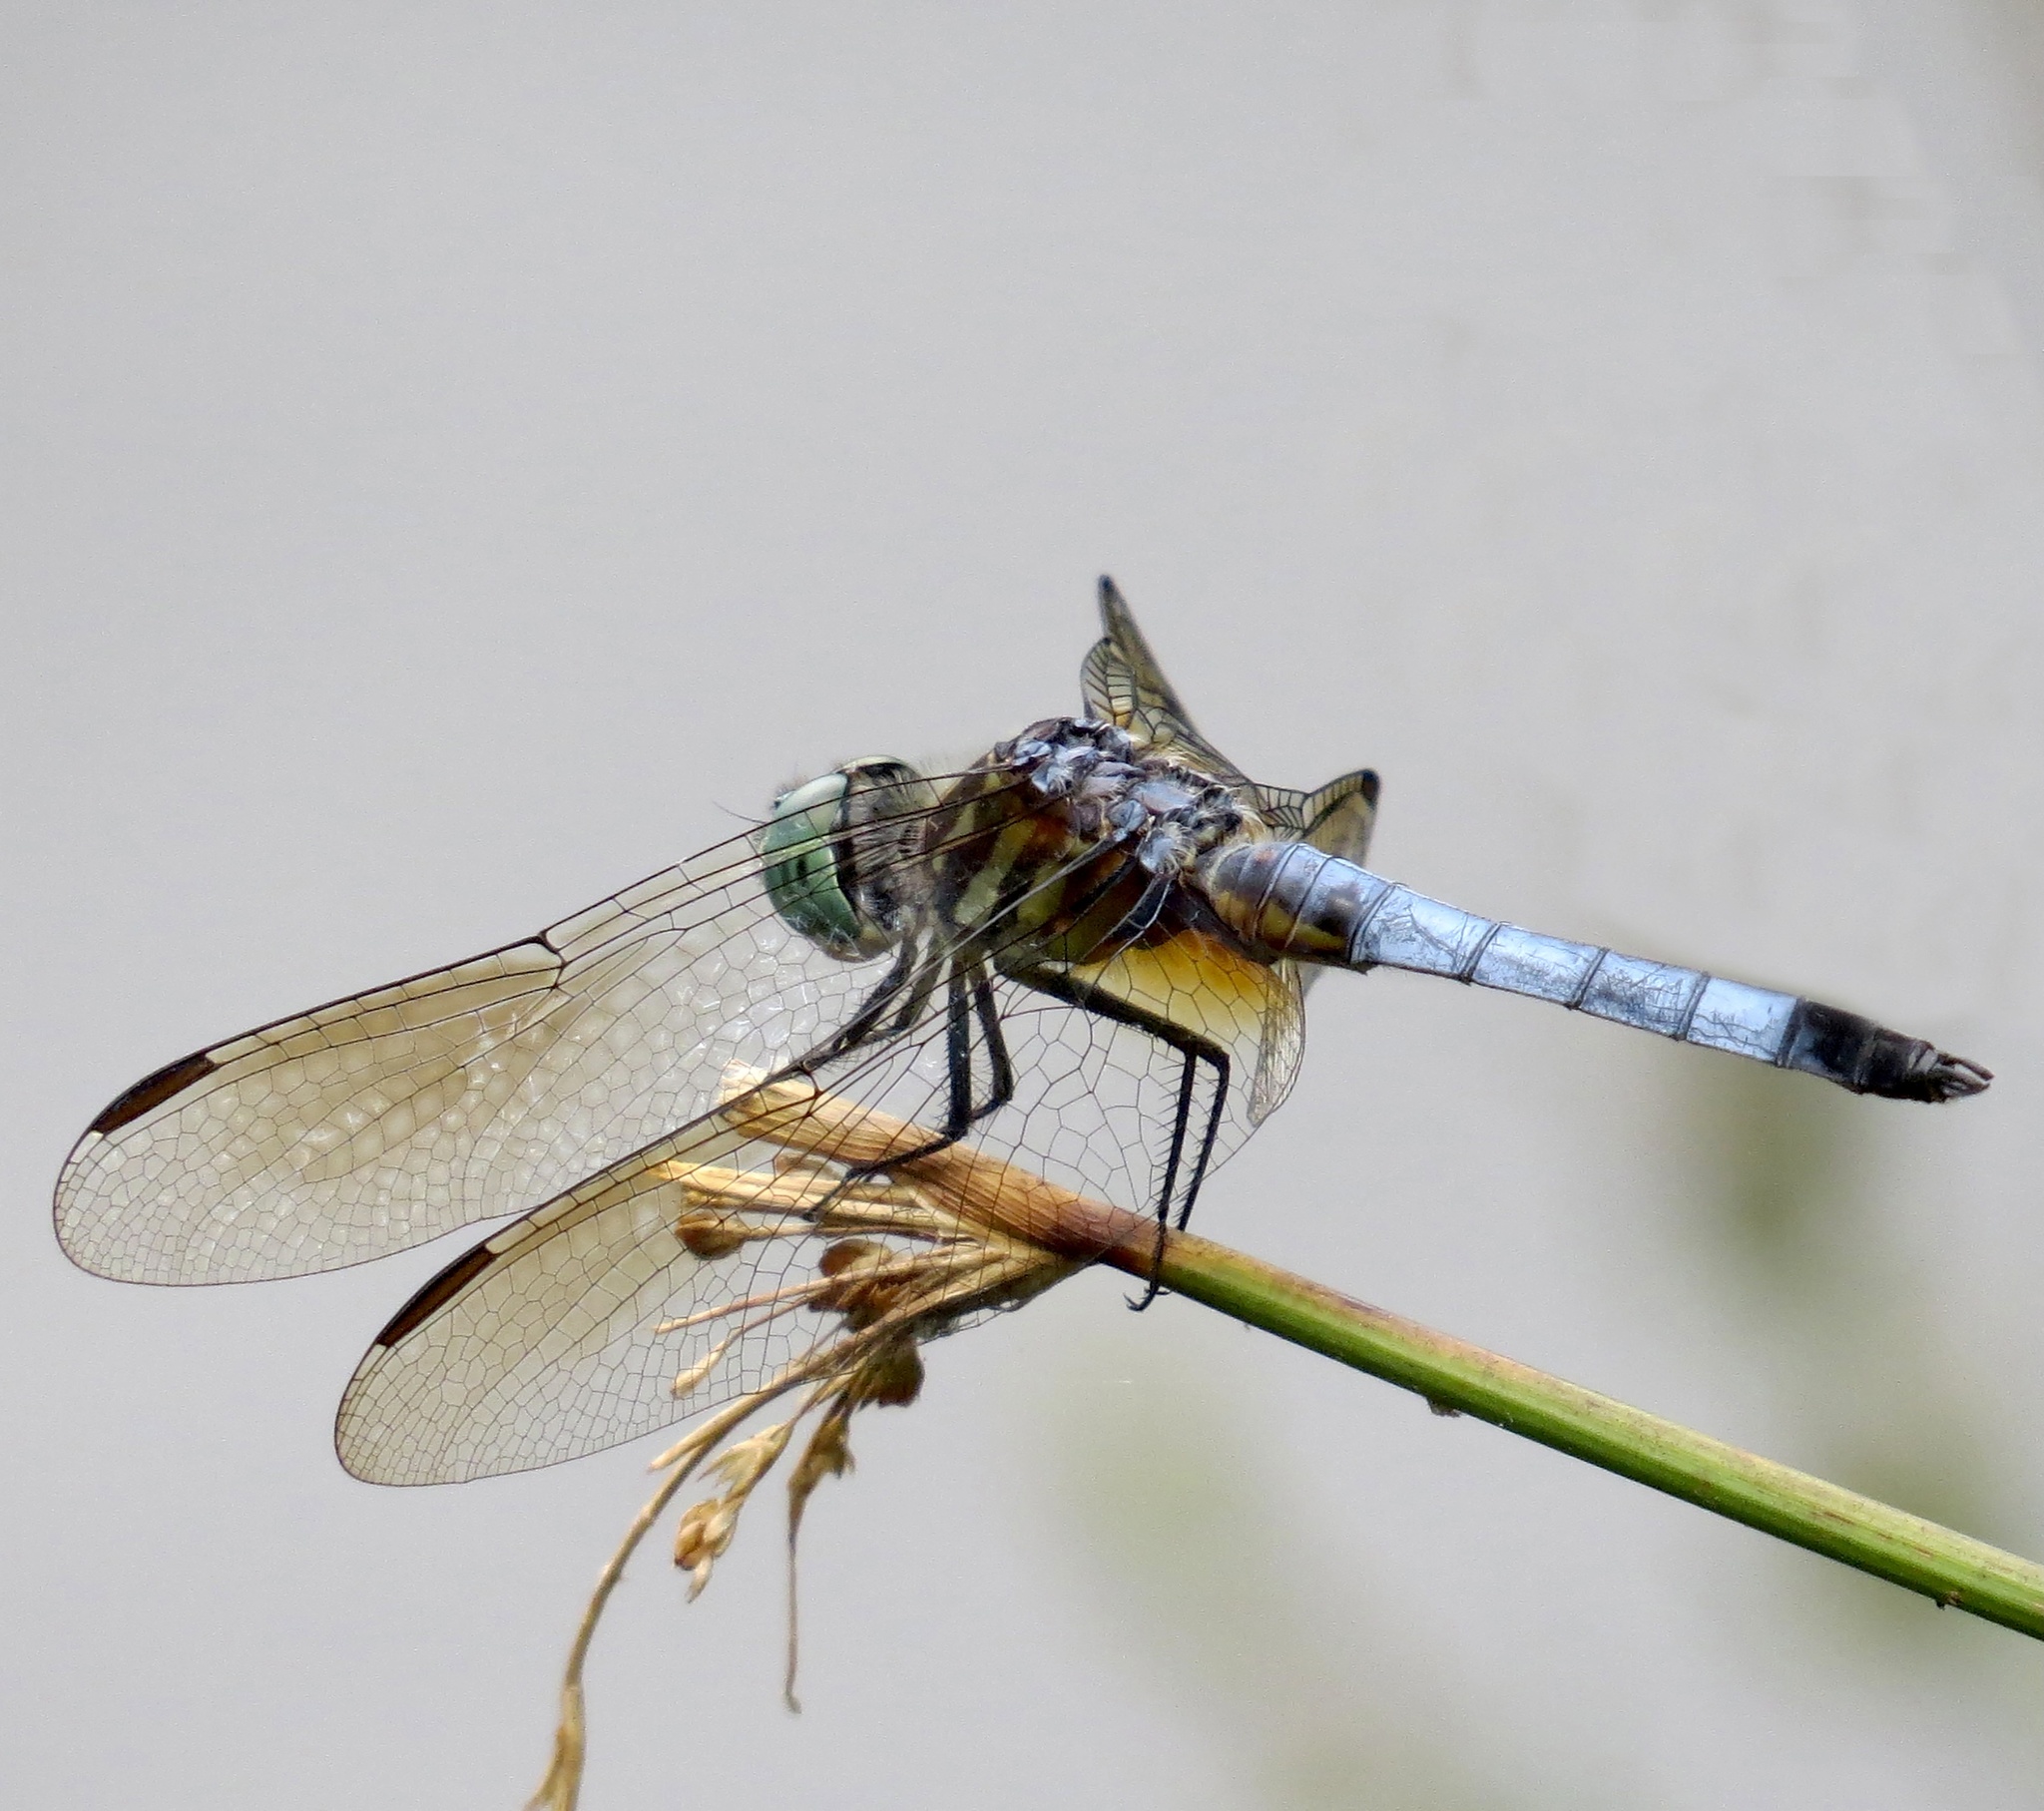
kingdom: Animalia
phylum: Arthropoda
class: Insecta
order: Odonata
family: Libellulidae
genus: Pachydiplax
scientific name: Pachydiplax longipennis
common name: Blue dasher
